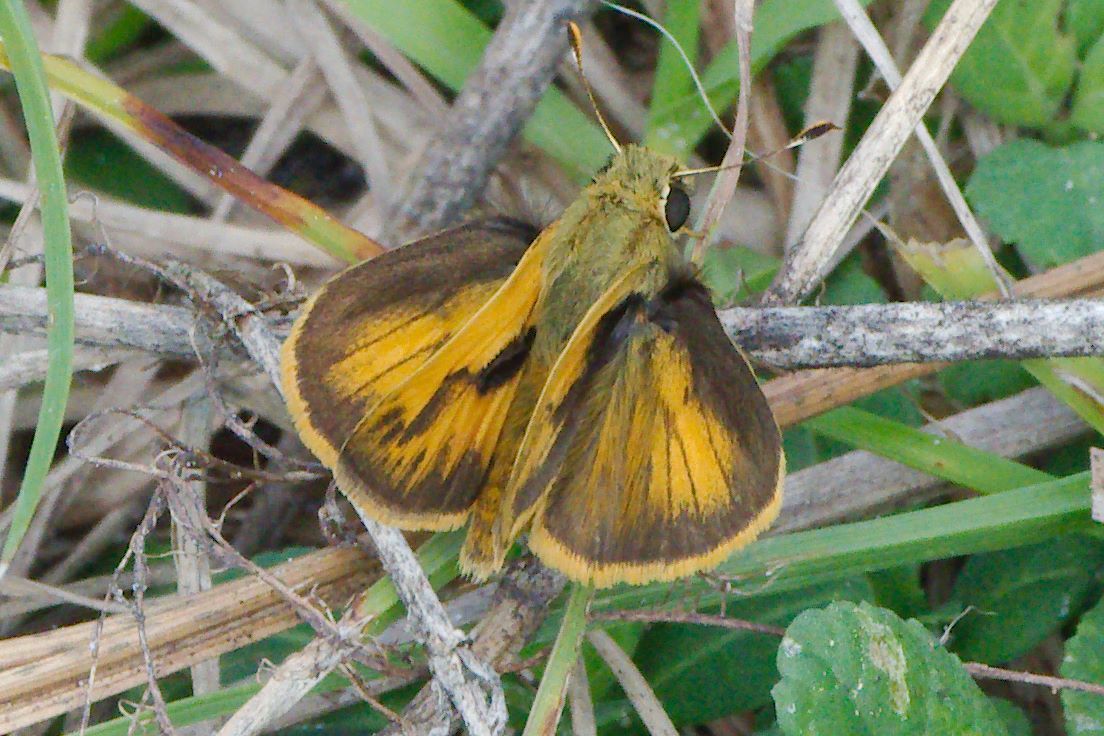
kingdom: Animalia
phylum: Arthropoda
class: Insecta
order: Lepidoptera
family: Hesperiidae
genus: Polites
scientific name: Polites vibex
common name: Whirlabout
